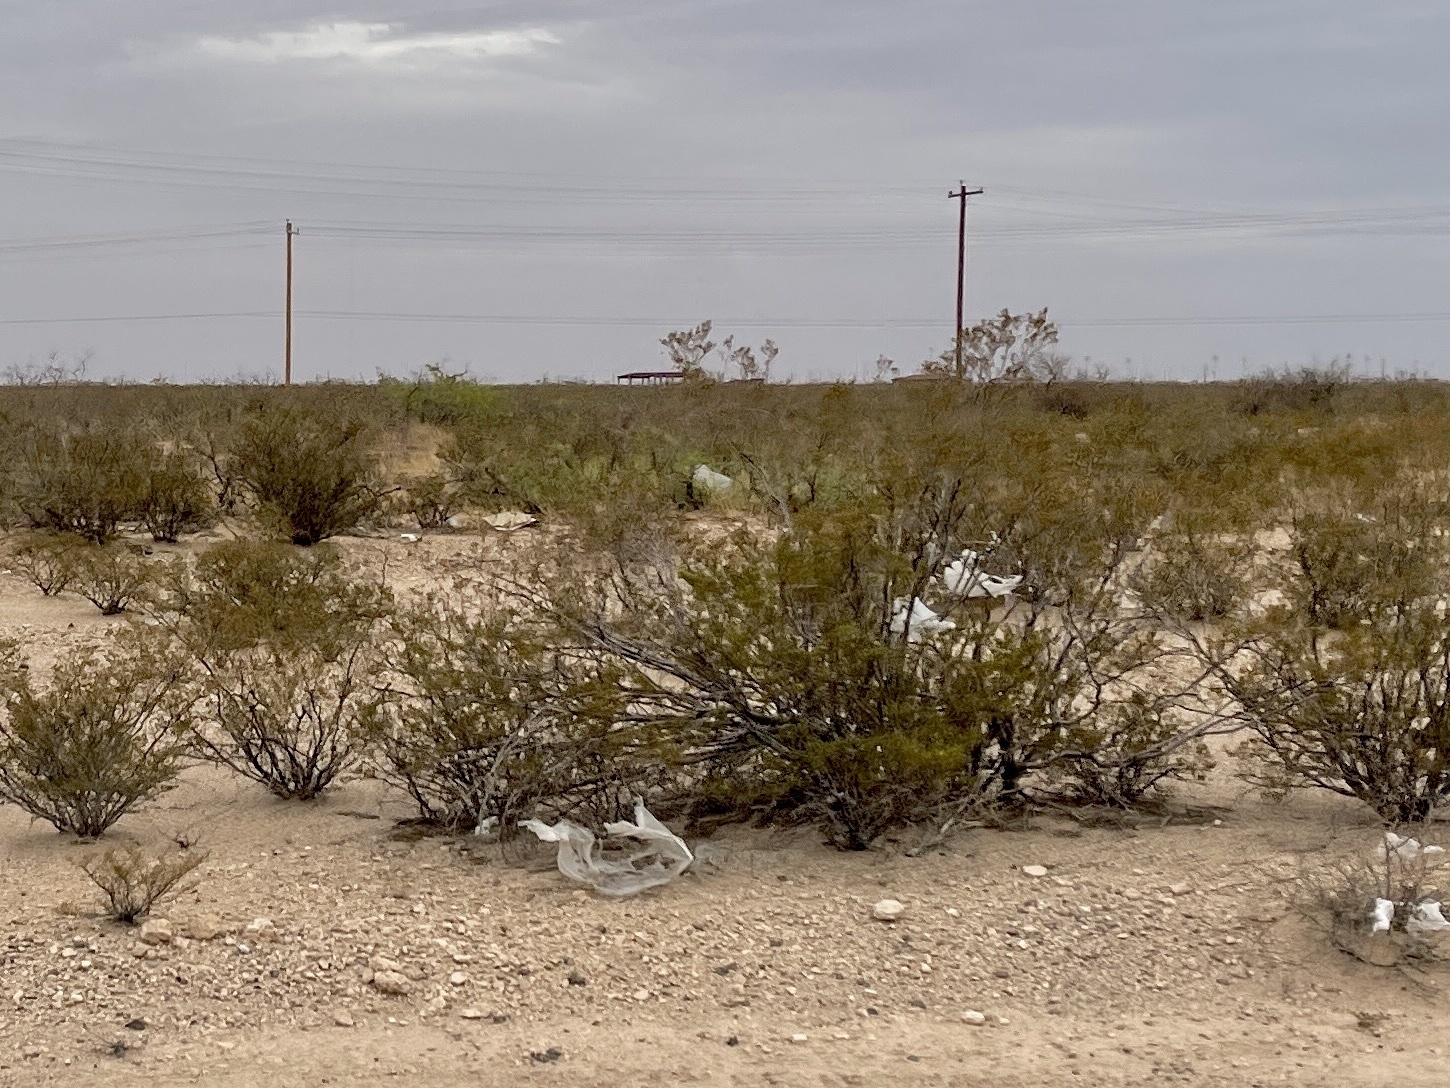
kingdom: Plantae
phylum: Tracheophyta
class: Magnoliopsida
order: Zygophyllales
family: Zygophyllaceae
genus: Larrea
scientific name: Larrea tridentata
